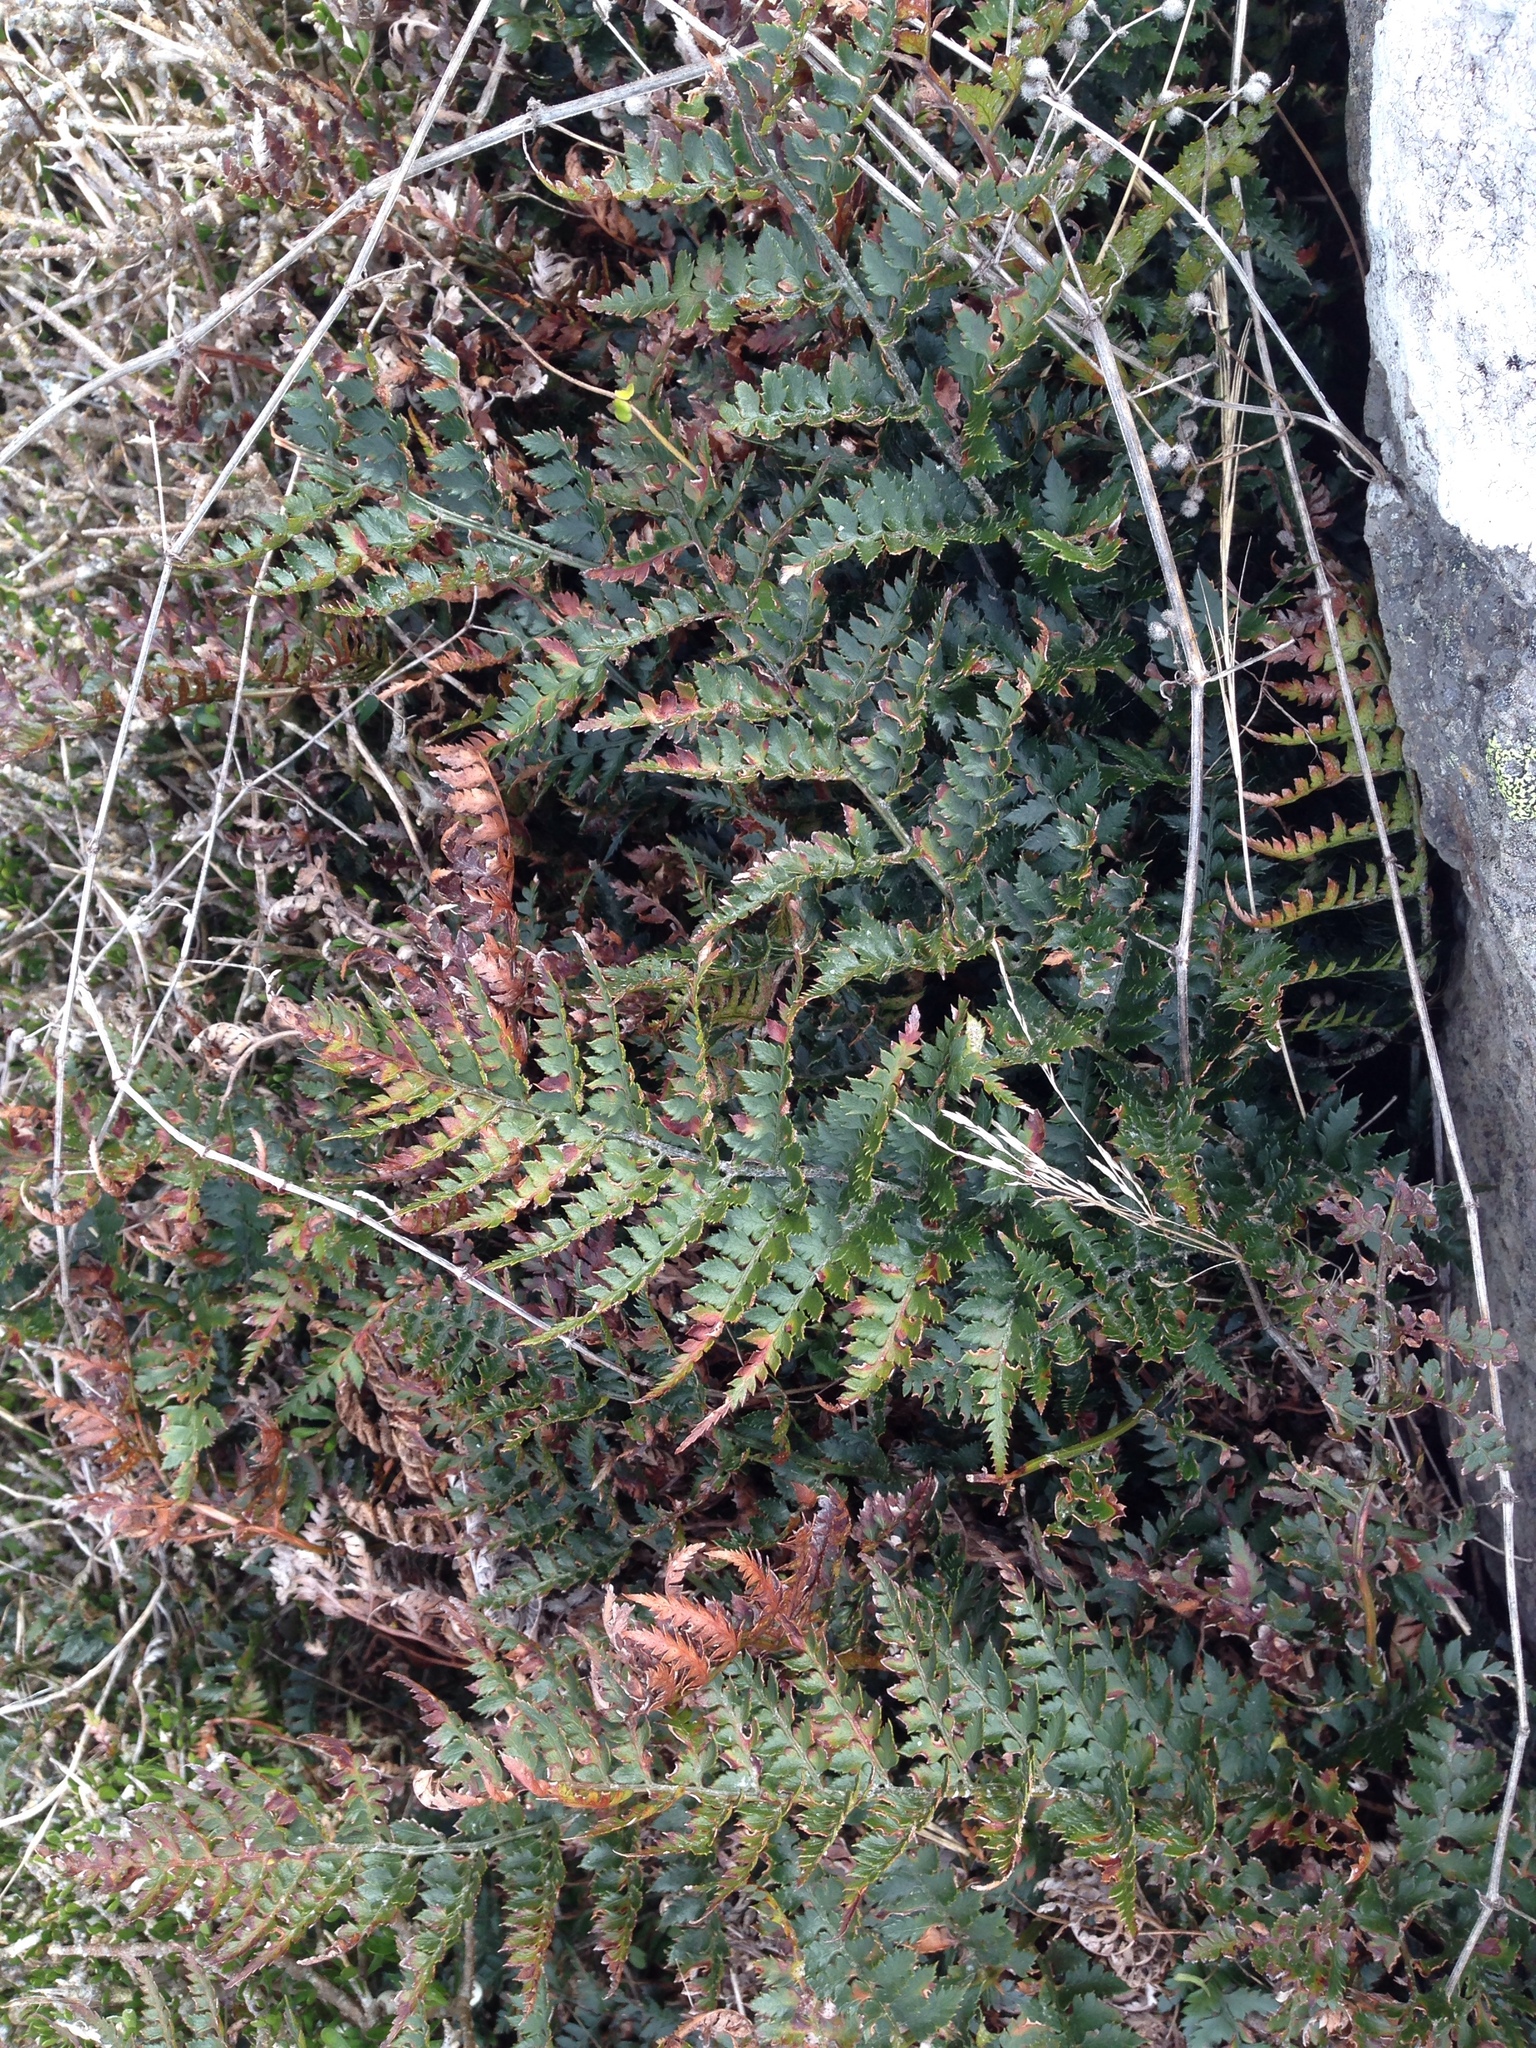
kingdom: Plantae
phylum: Tracheophyta
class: Polypodiopsida
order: Polypodiales
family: Dryopteridaceae
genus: Polystichum
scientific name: Polystichum oculatum
